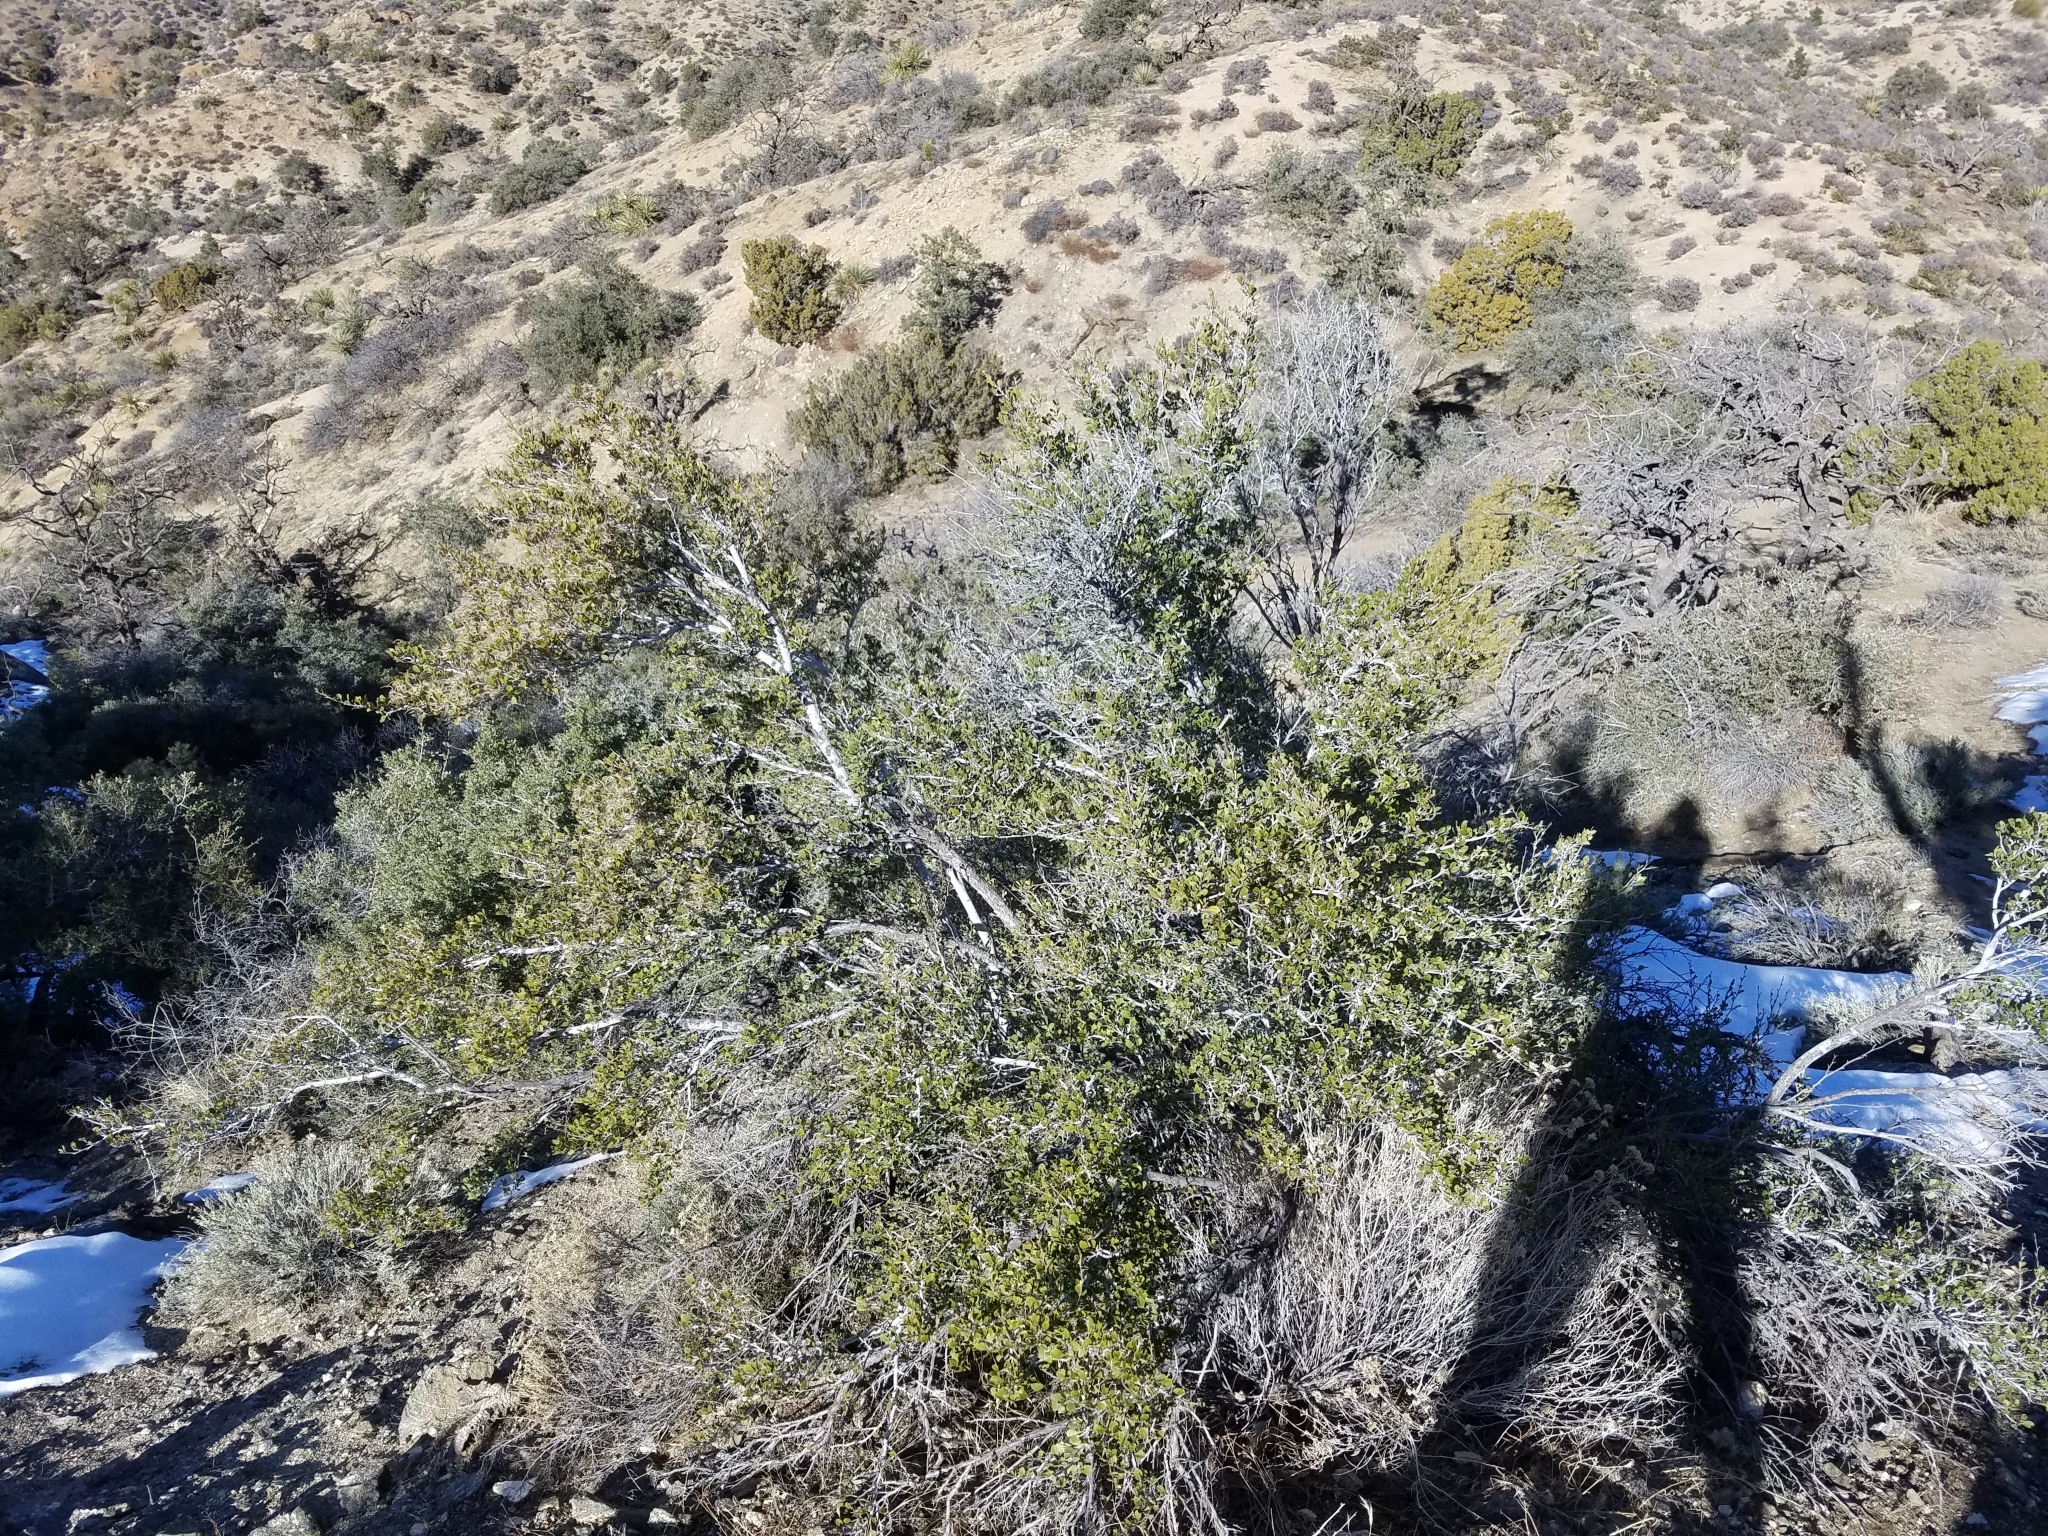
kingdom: Plantae
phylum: Tracheophyta
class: Magnoliopsida
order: Rosales
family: Rosaceae
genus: Cercocarpus
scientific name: Cercocarpus betuloides
